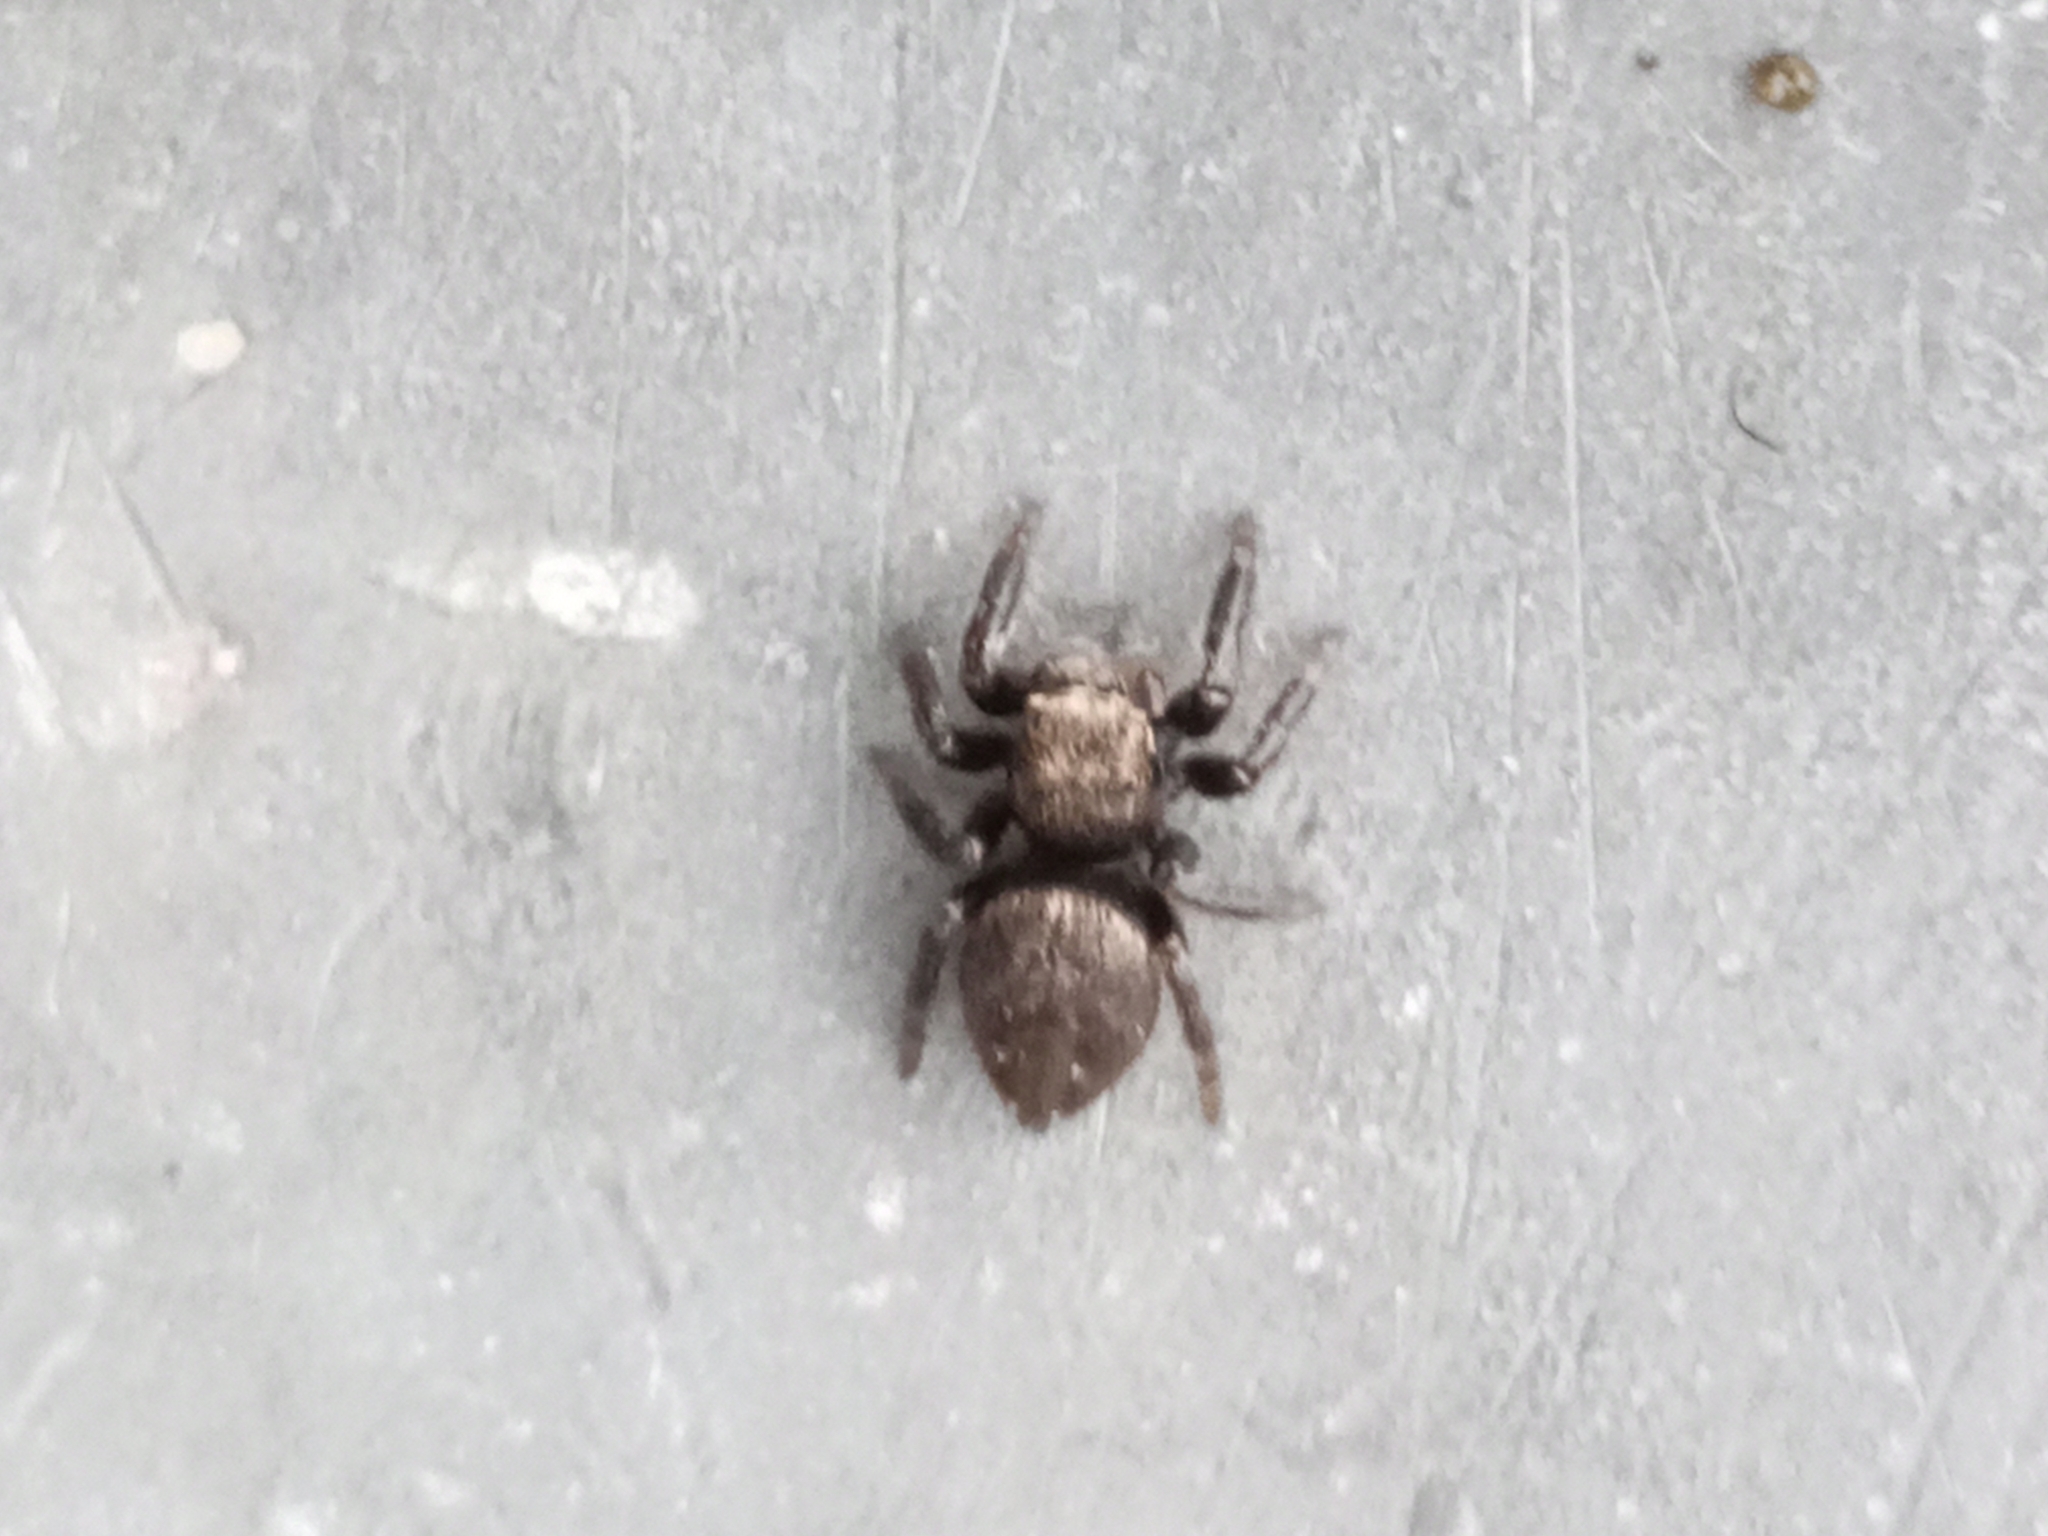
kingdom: Animalia
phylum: Arthropoda
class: Arachnida
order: Araneae
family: Salticidae
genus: Evarcha
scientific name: Evarcha arcuata
